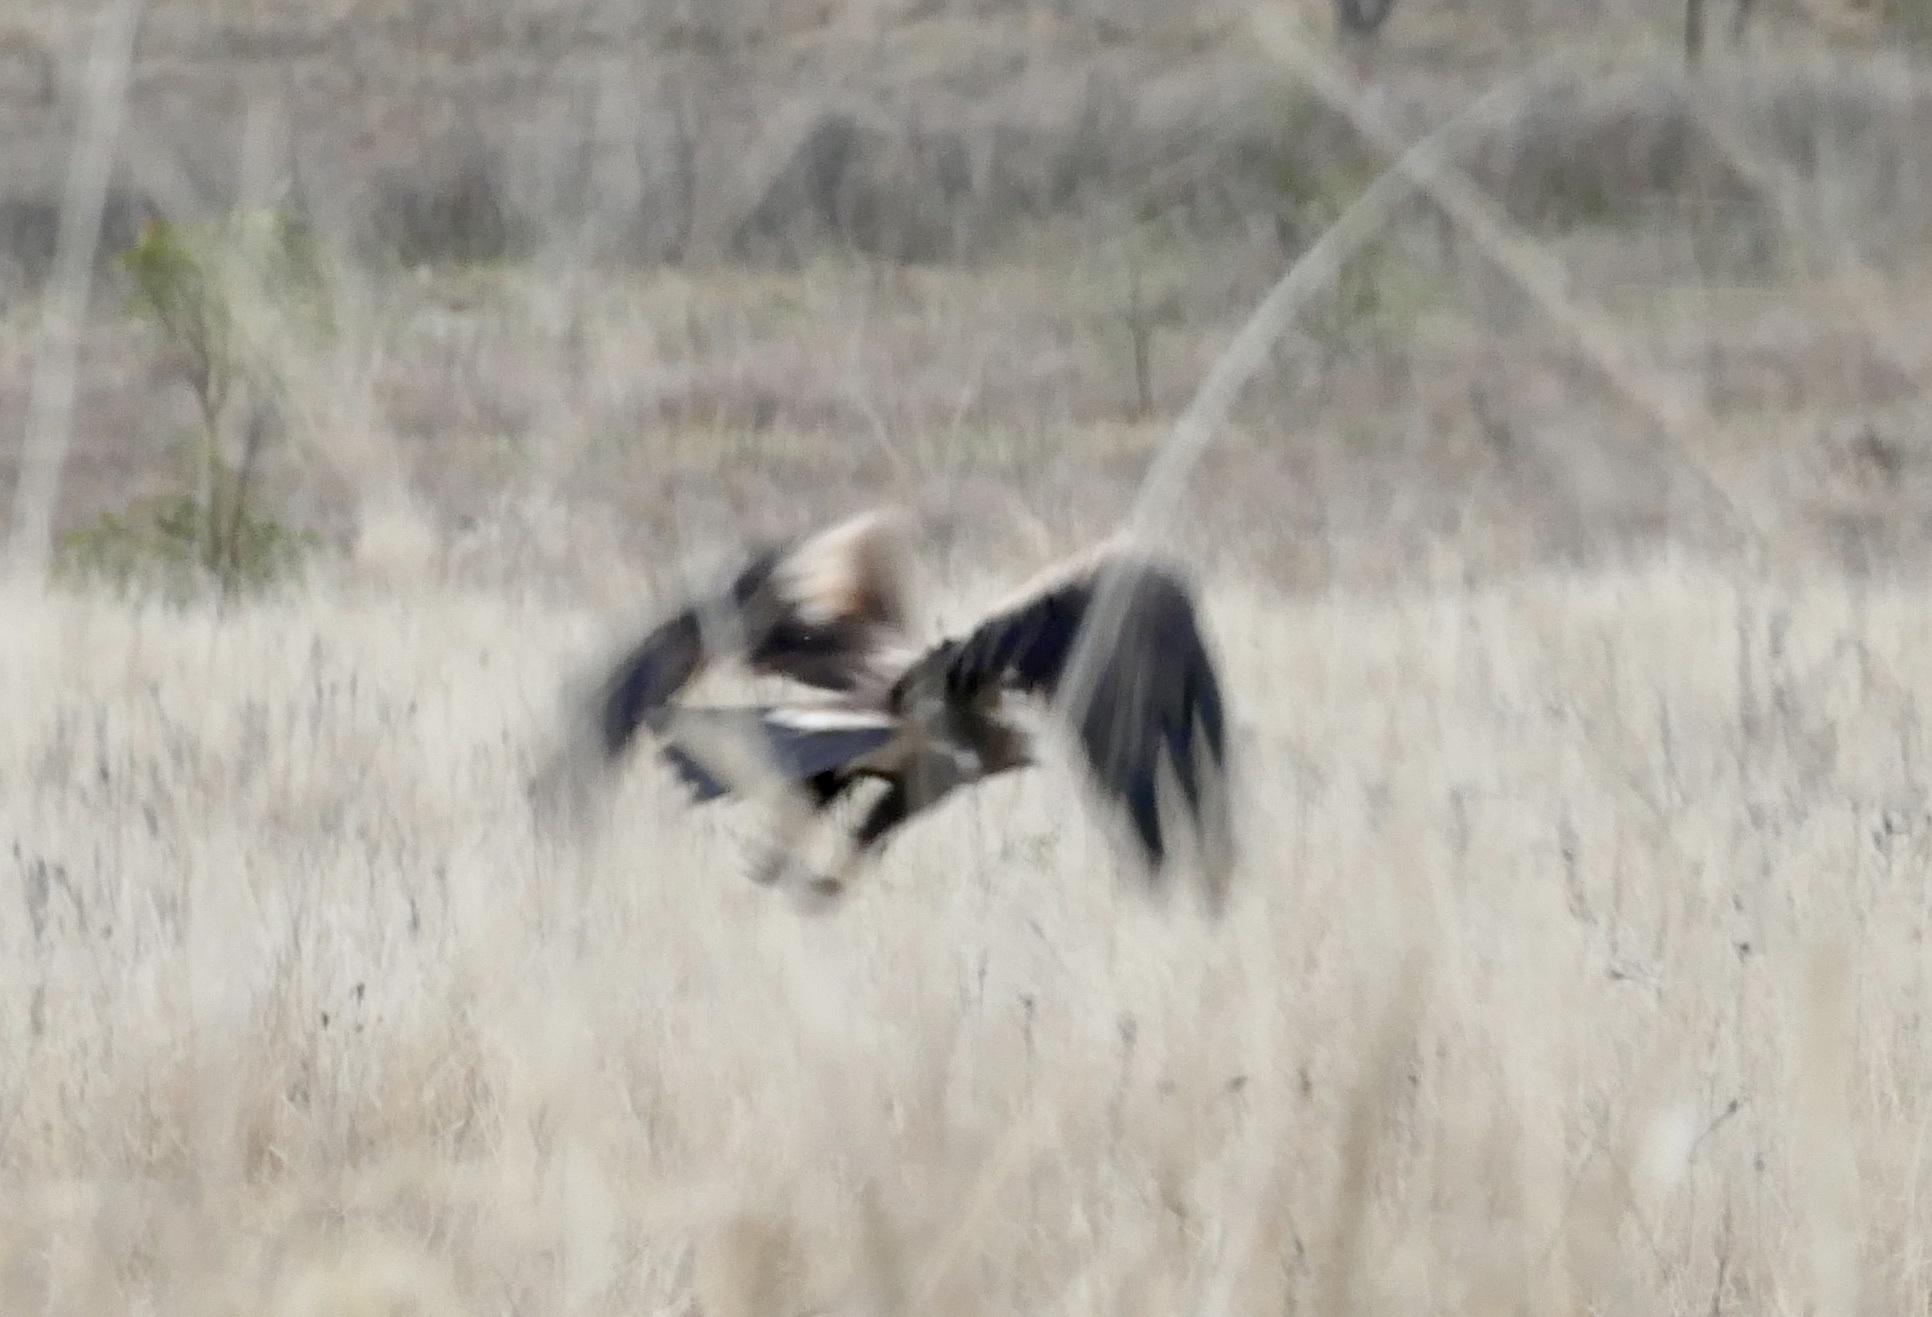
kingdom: Animalia
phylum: Chordata
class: Aves
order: Accipitriformes
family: Accipitridae
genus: Aquila
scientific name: Aquila audax
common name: Wedge-tailed eagle
